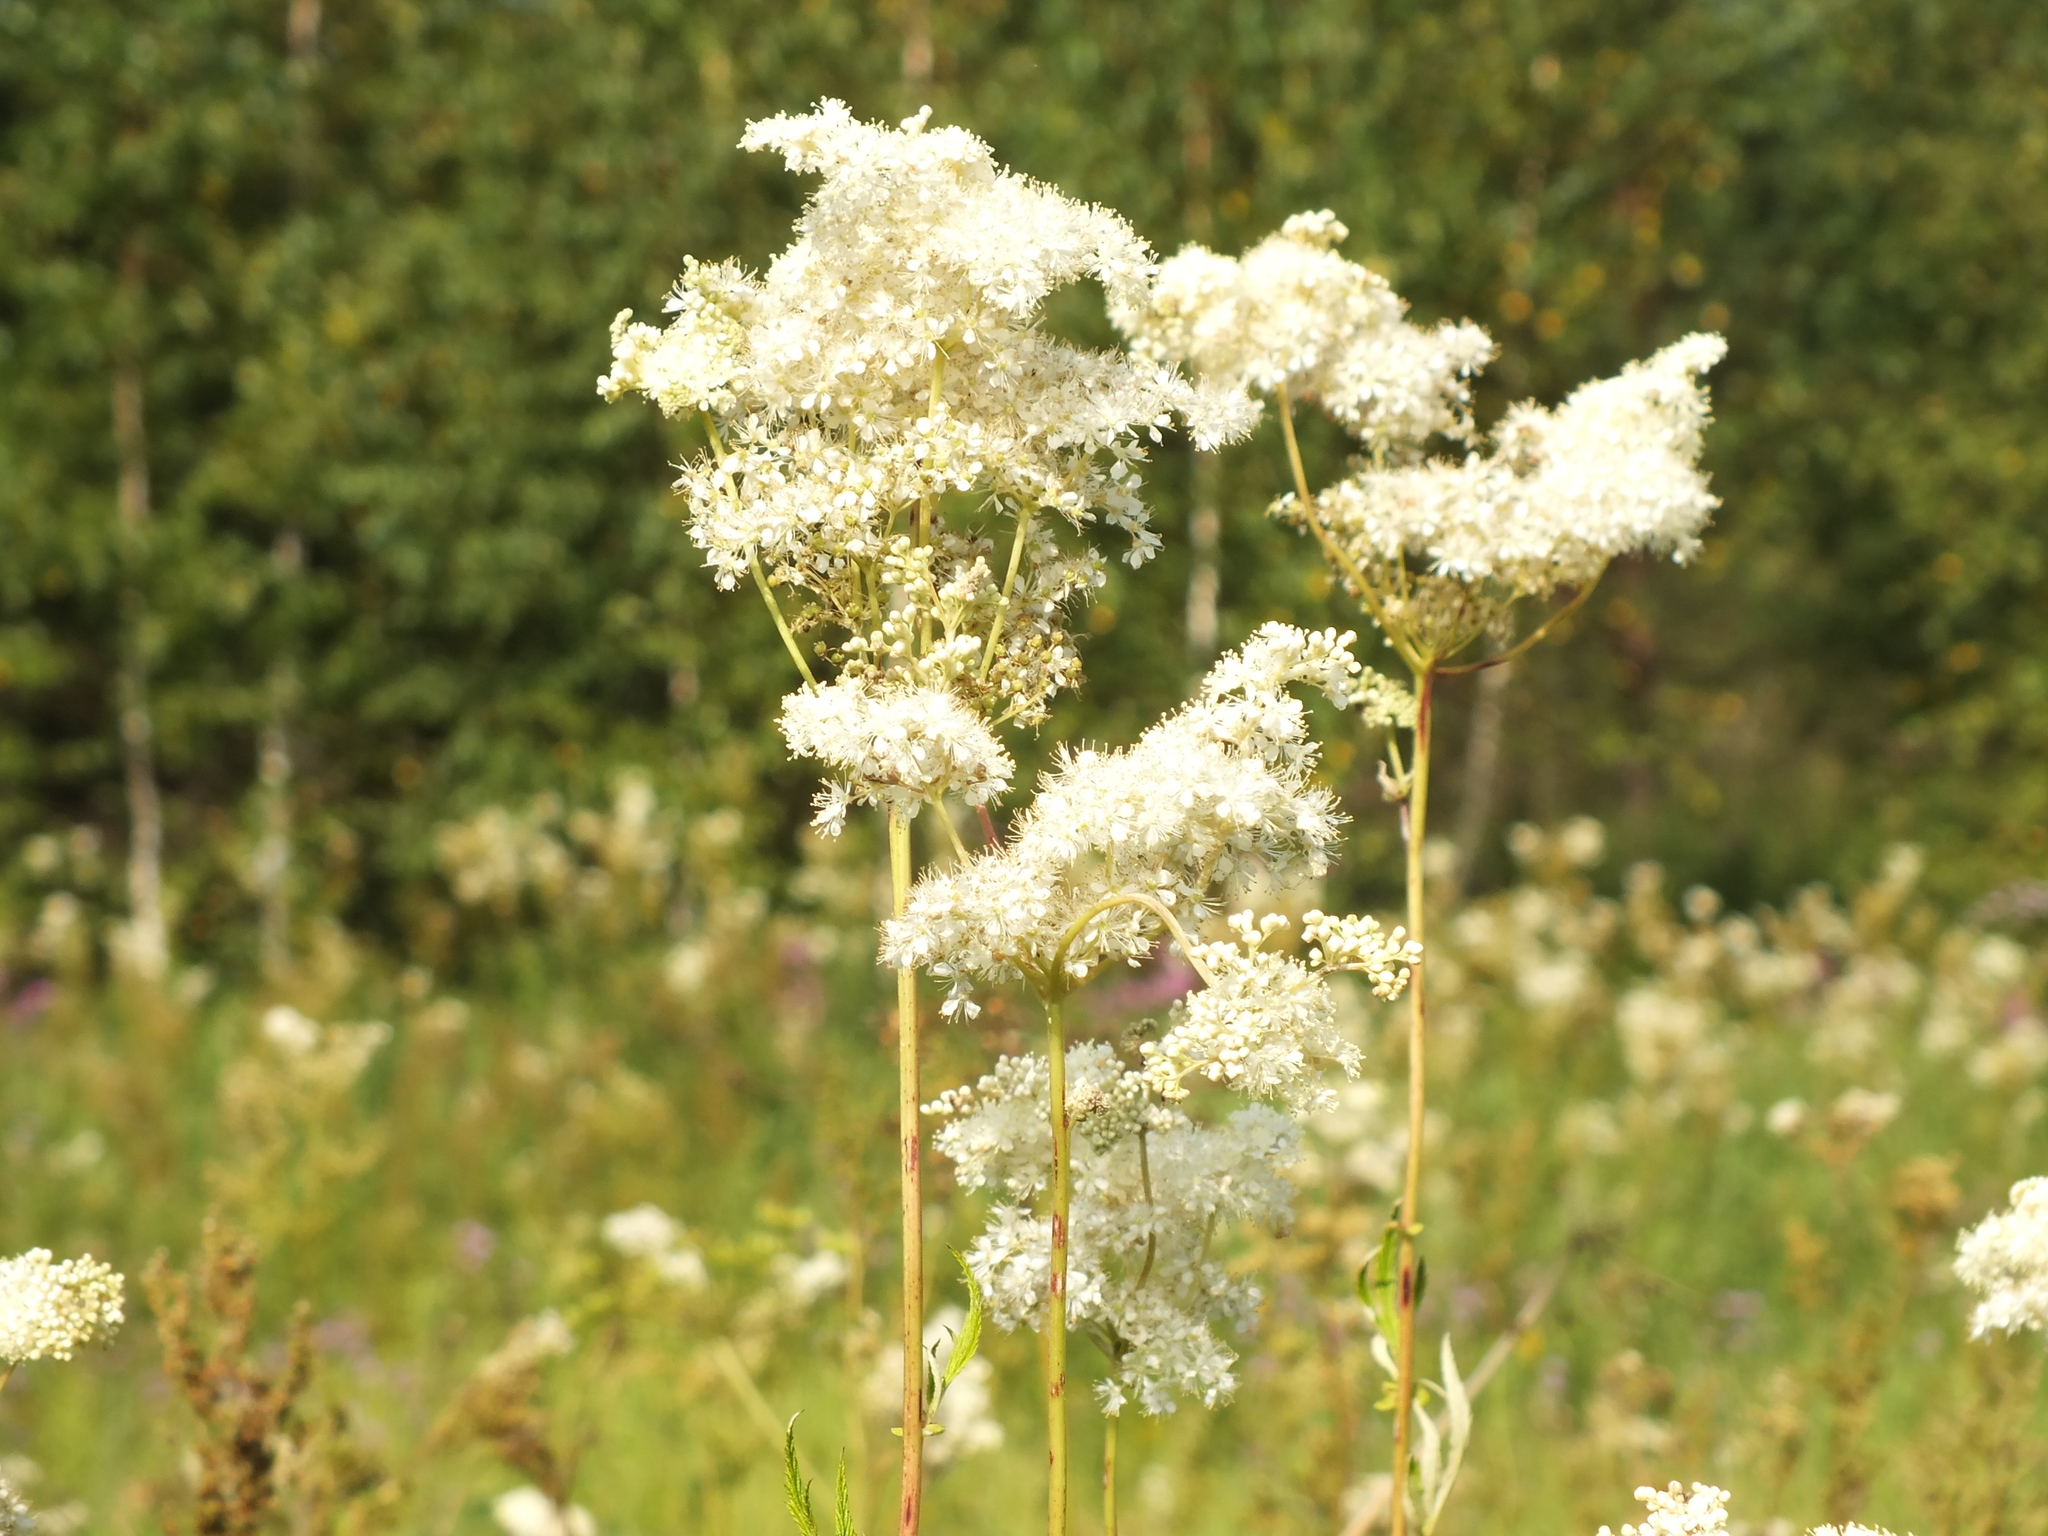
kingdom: Plantae
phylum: Tracheophyta
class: Magnoliopsida
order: Rosales
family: Rosaceae
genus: Filipendula
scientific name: Filipendula ulmaria
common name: Meadowsweet
